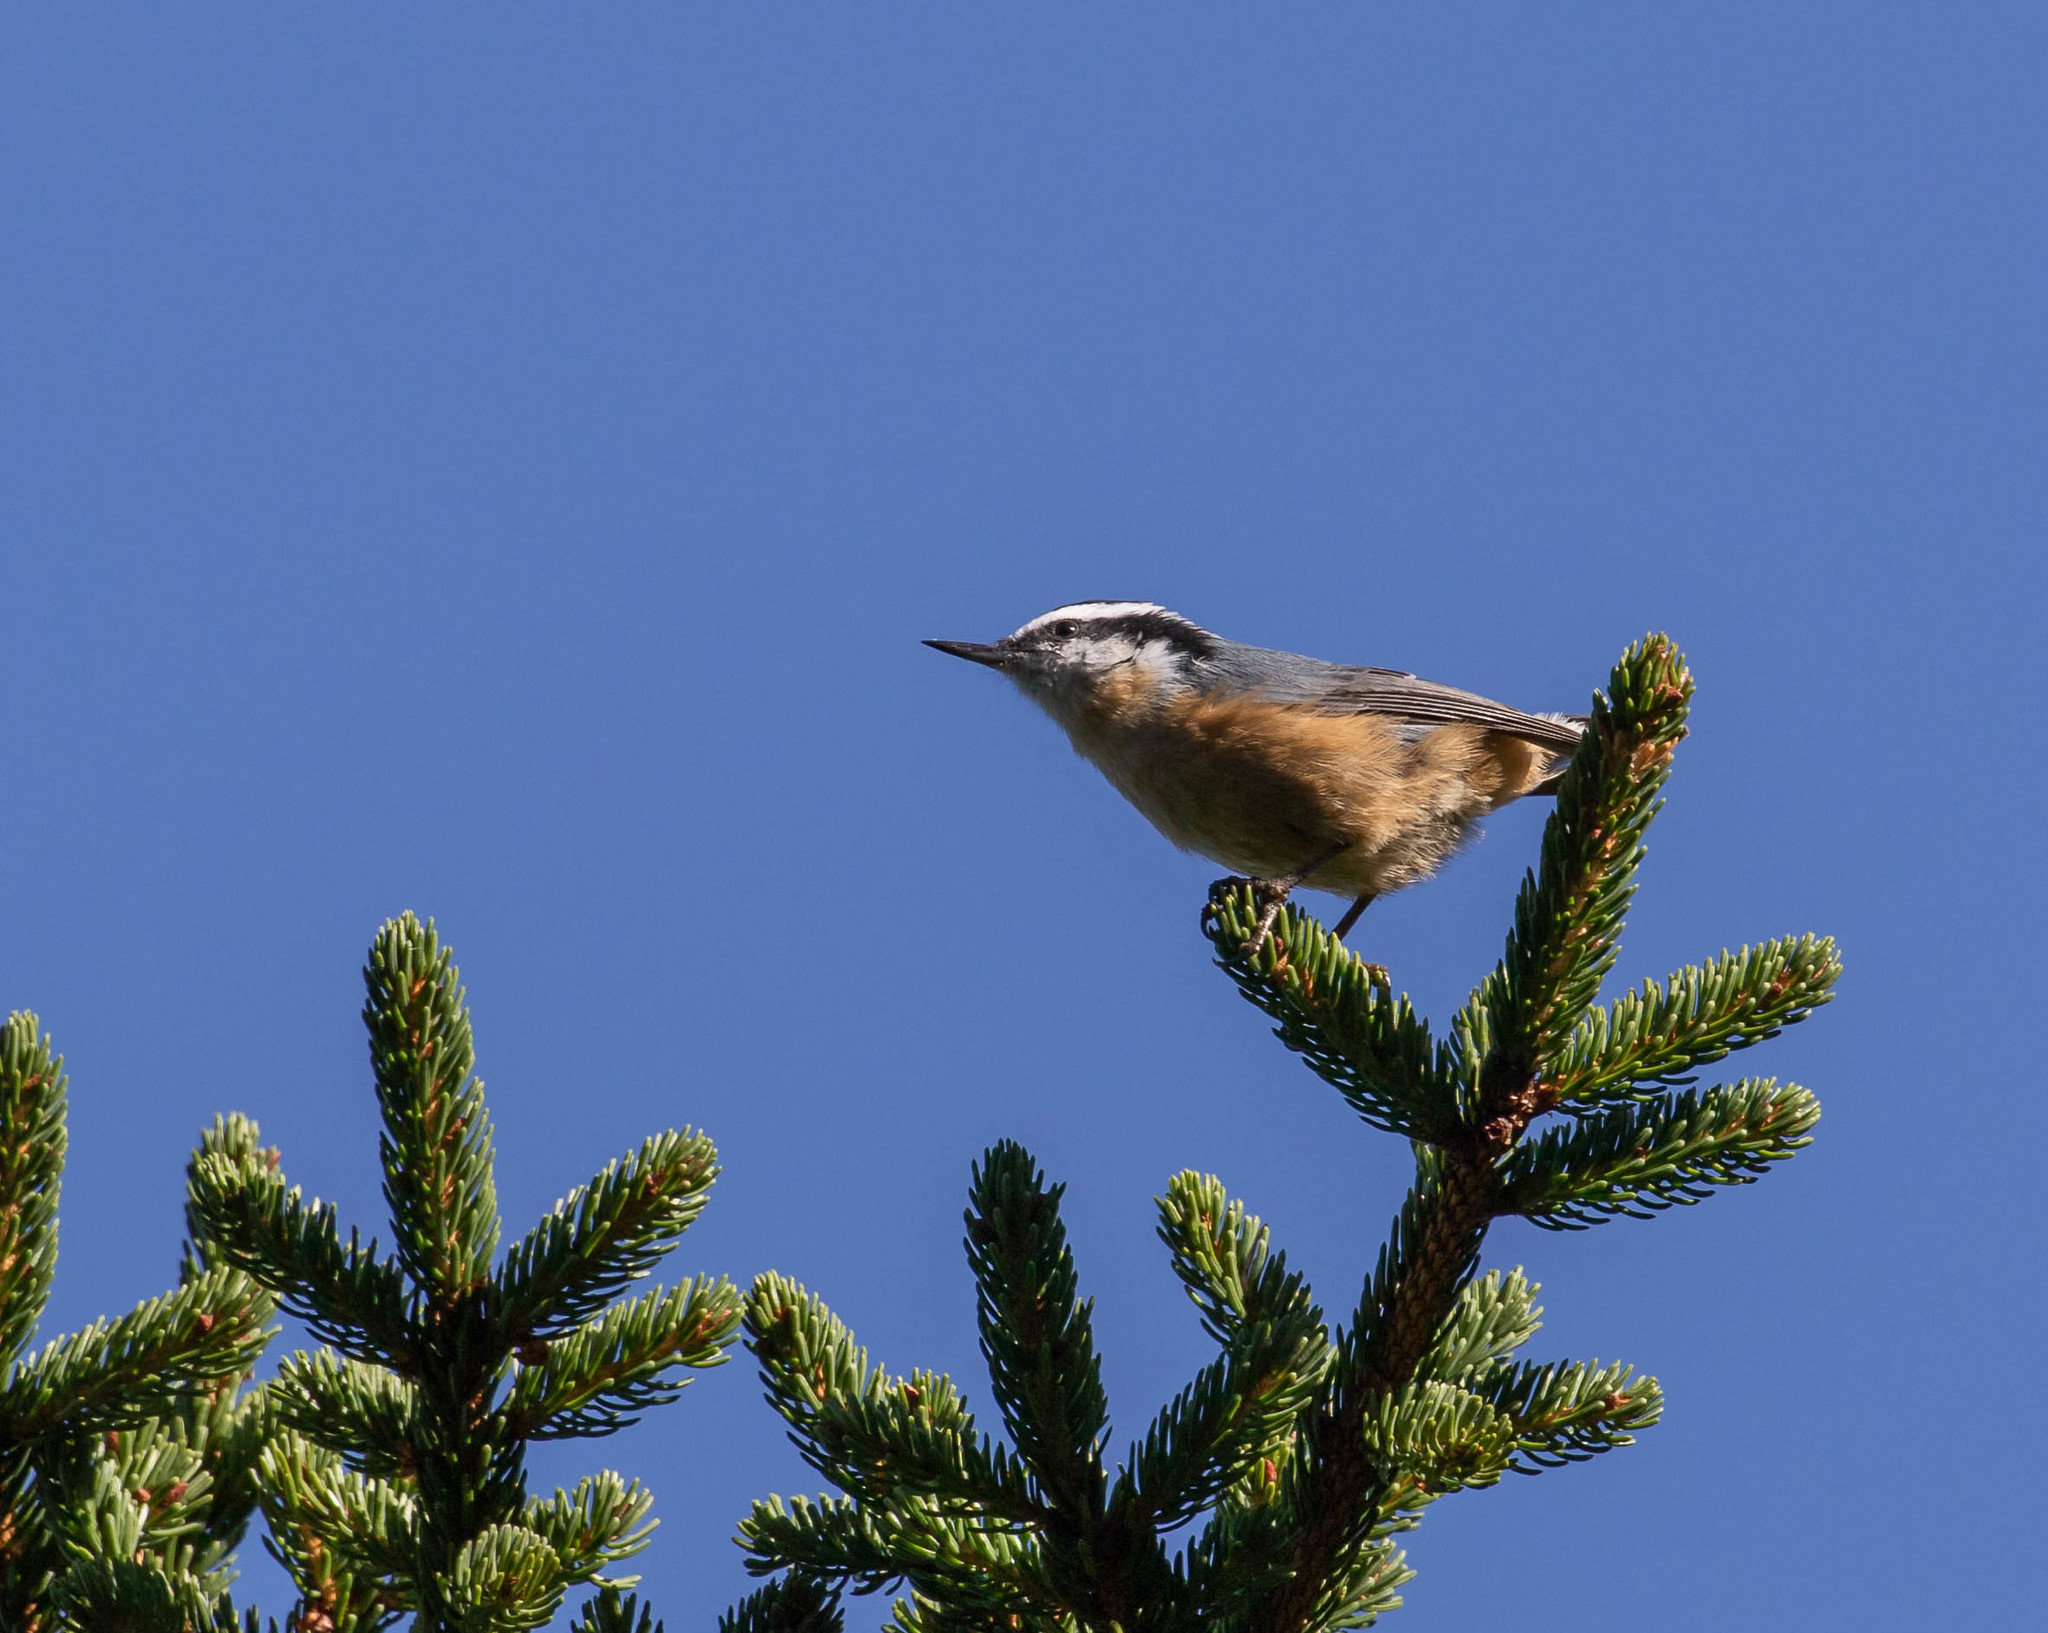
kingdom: Animalia
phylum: Chordata
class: Aves
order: Passeriformes
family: Sittidae
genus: Sitta
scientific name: Sitta canadensis
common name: Red-breasted nuthatch
